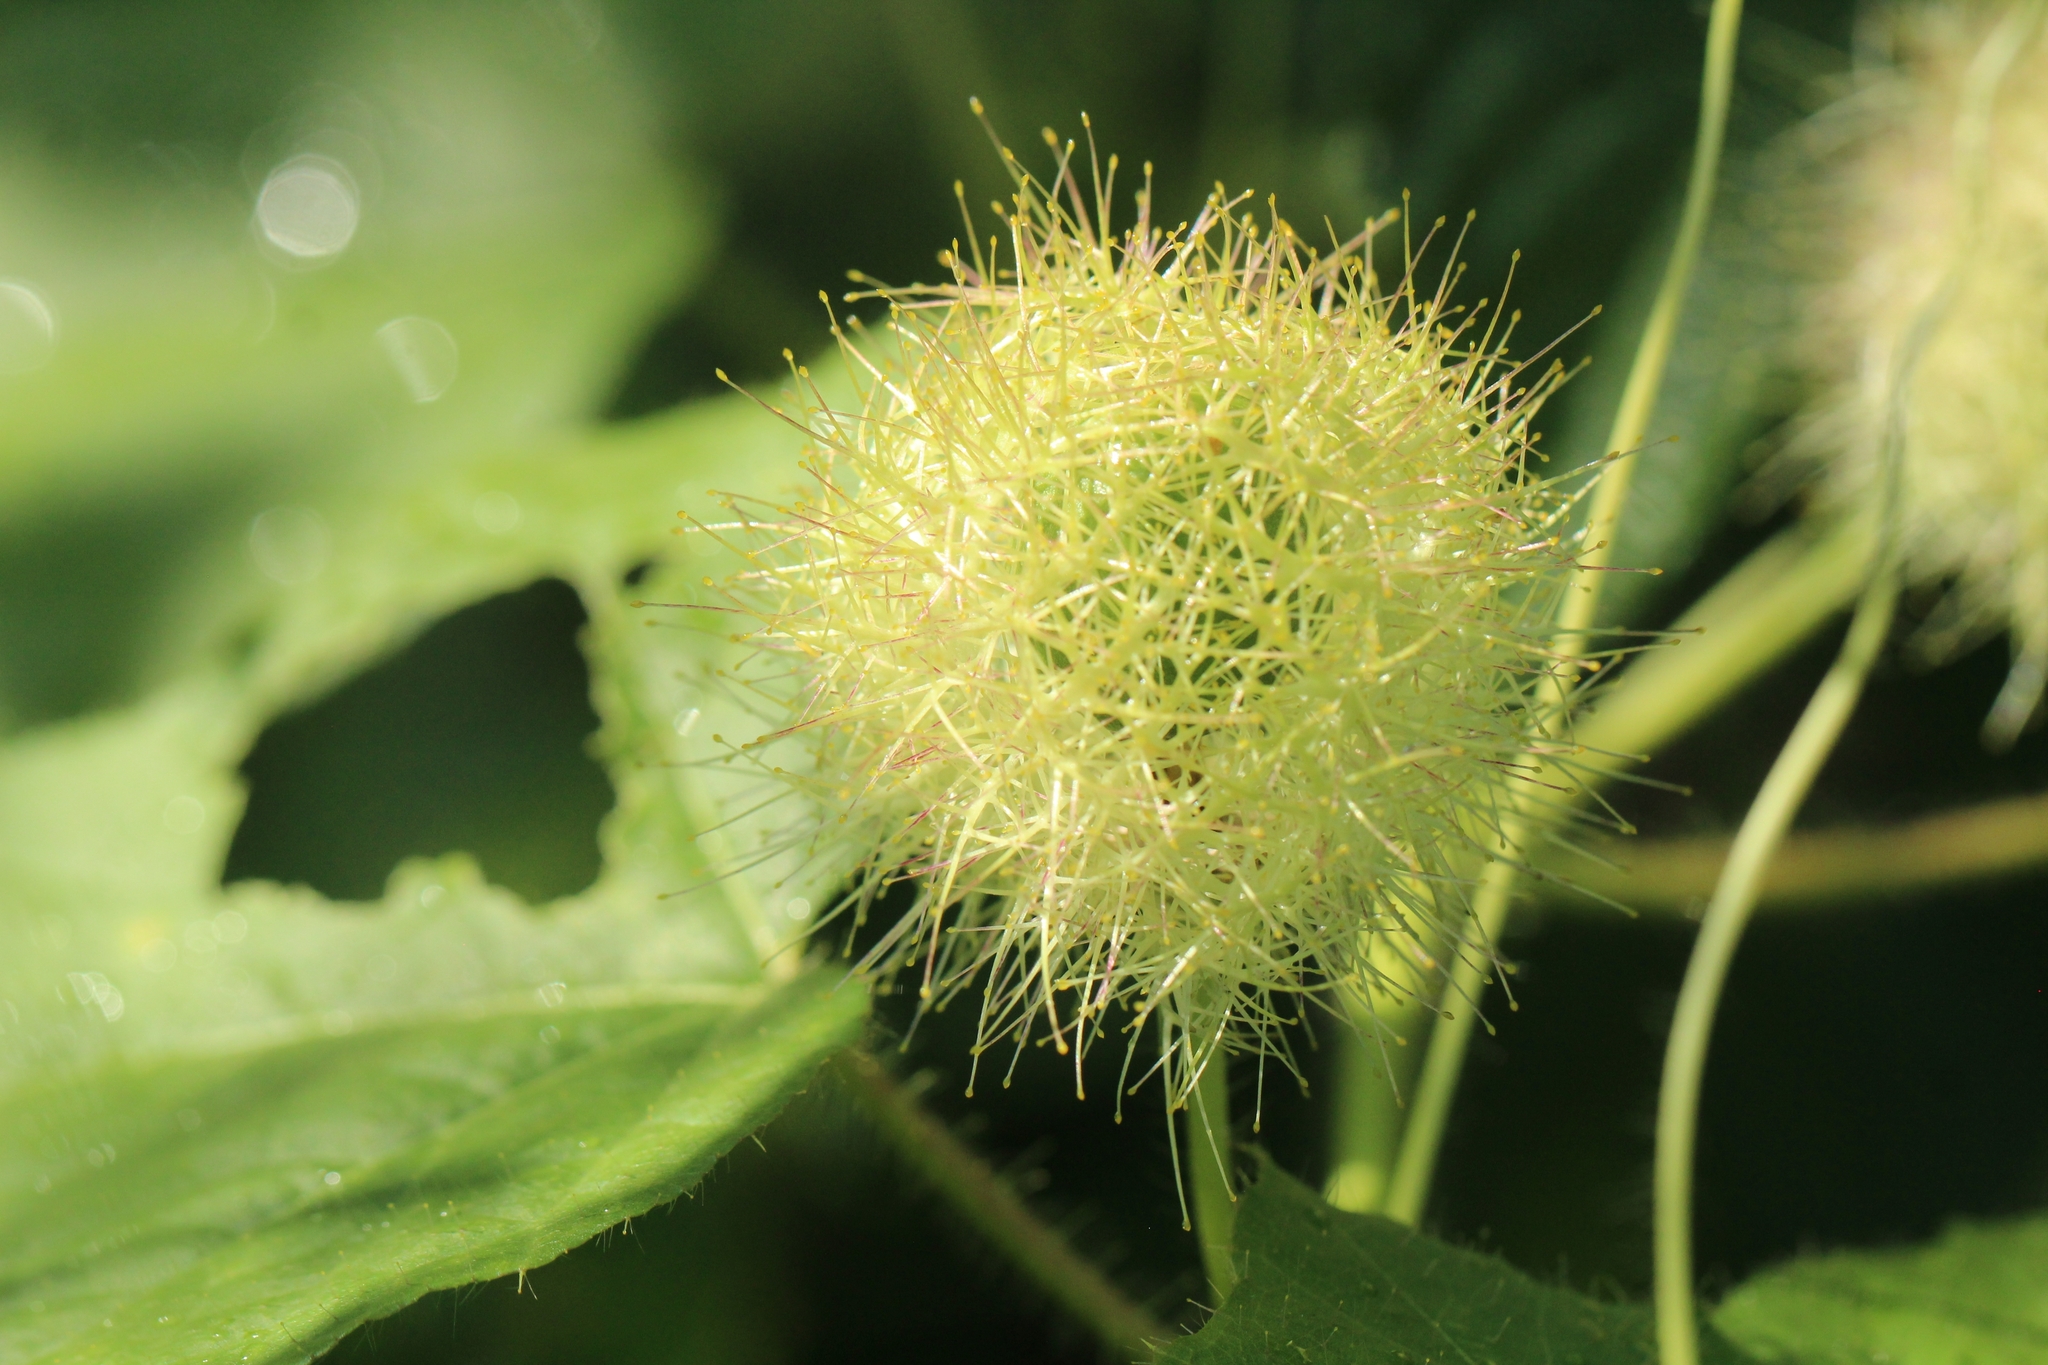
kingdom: Plantae
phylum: Tracheophyta
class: Magnoliopsida
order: Malpighiales
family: Passifloraceae
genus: Passiflora
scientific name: Passiflora foetida
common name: Fetid passionflower
